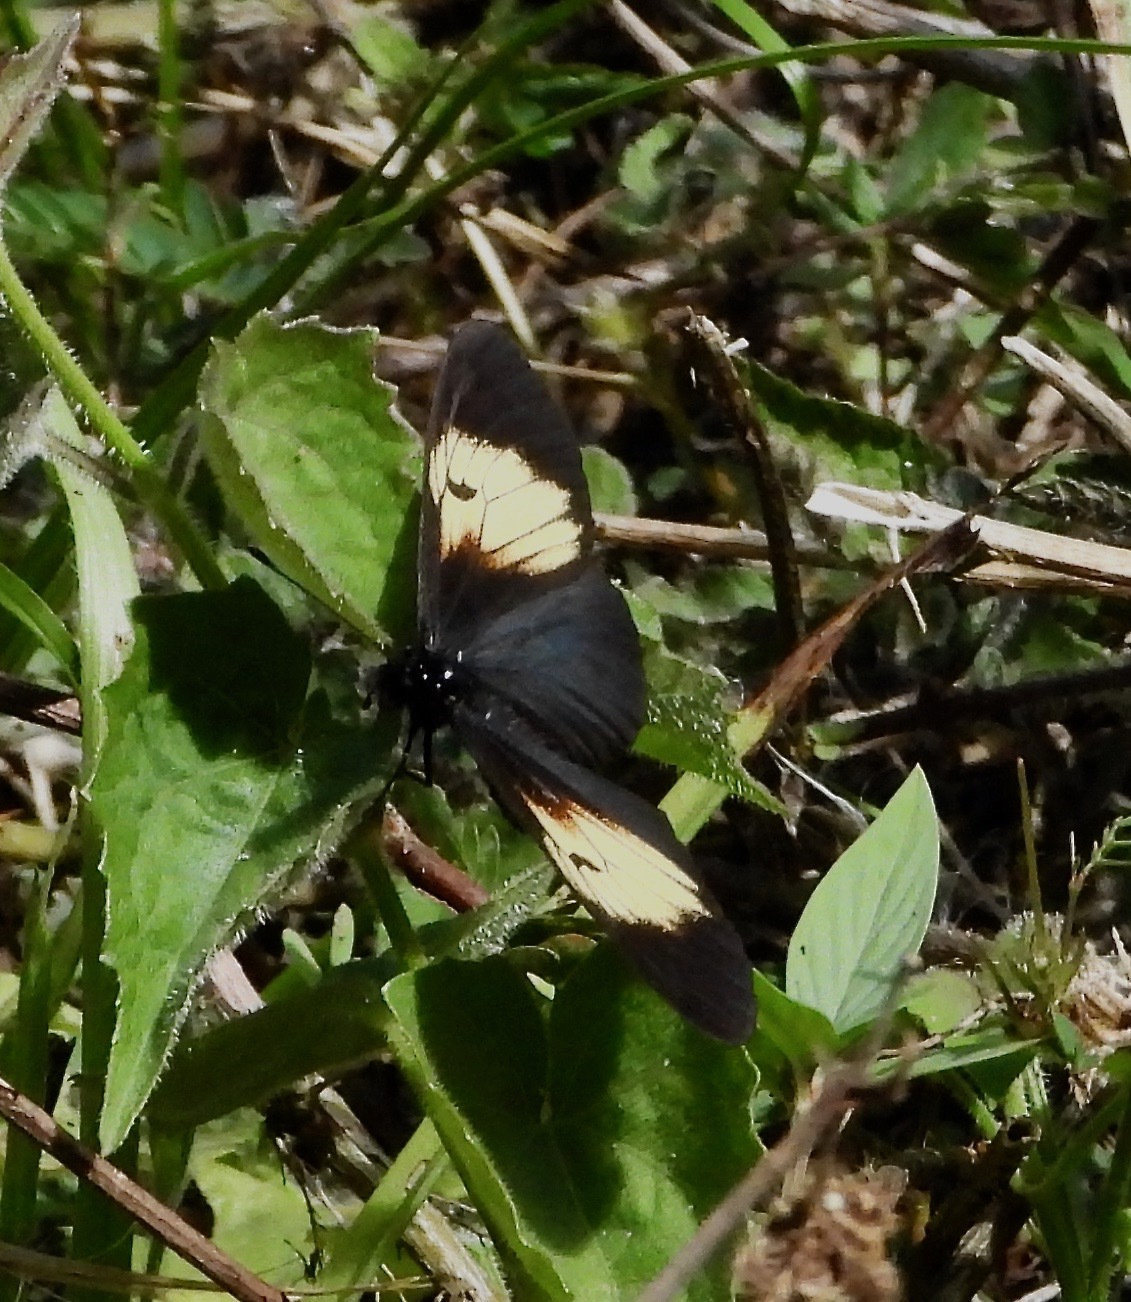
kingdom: Animalia
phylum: Arthropoda
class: Insecta
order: Lepidoptera
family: Nymphalidae
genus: Actinote
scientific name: Actinote stratonice
